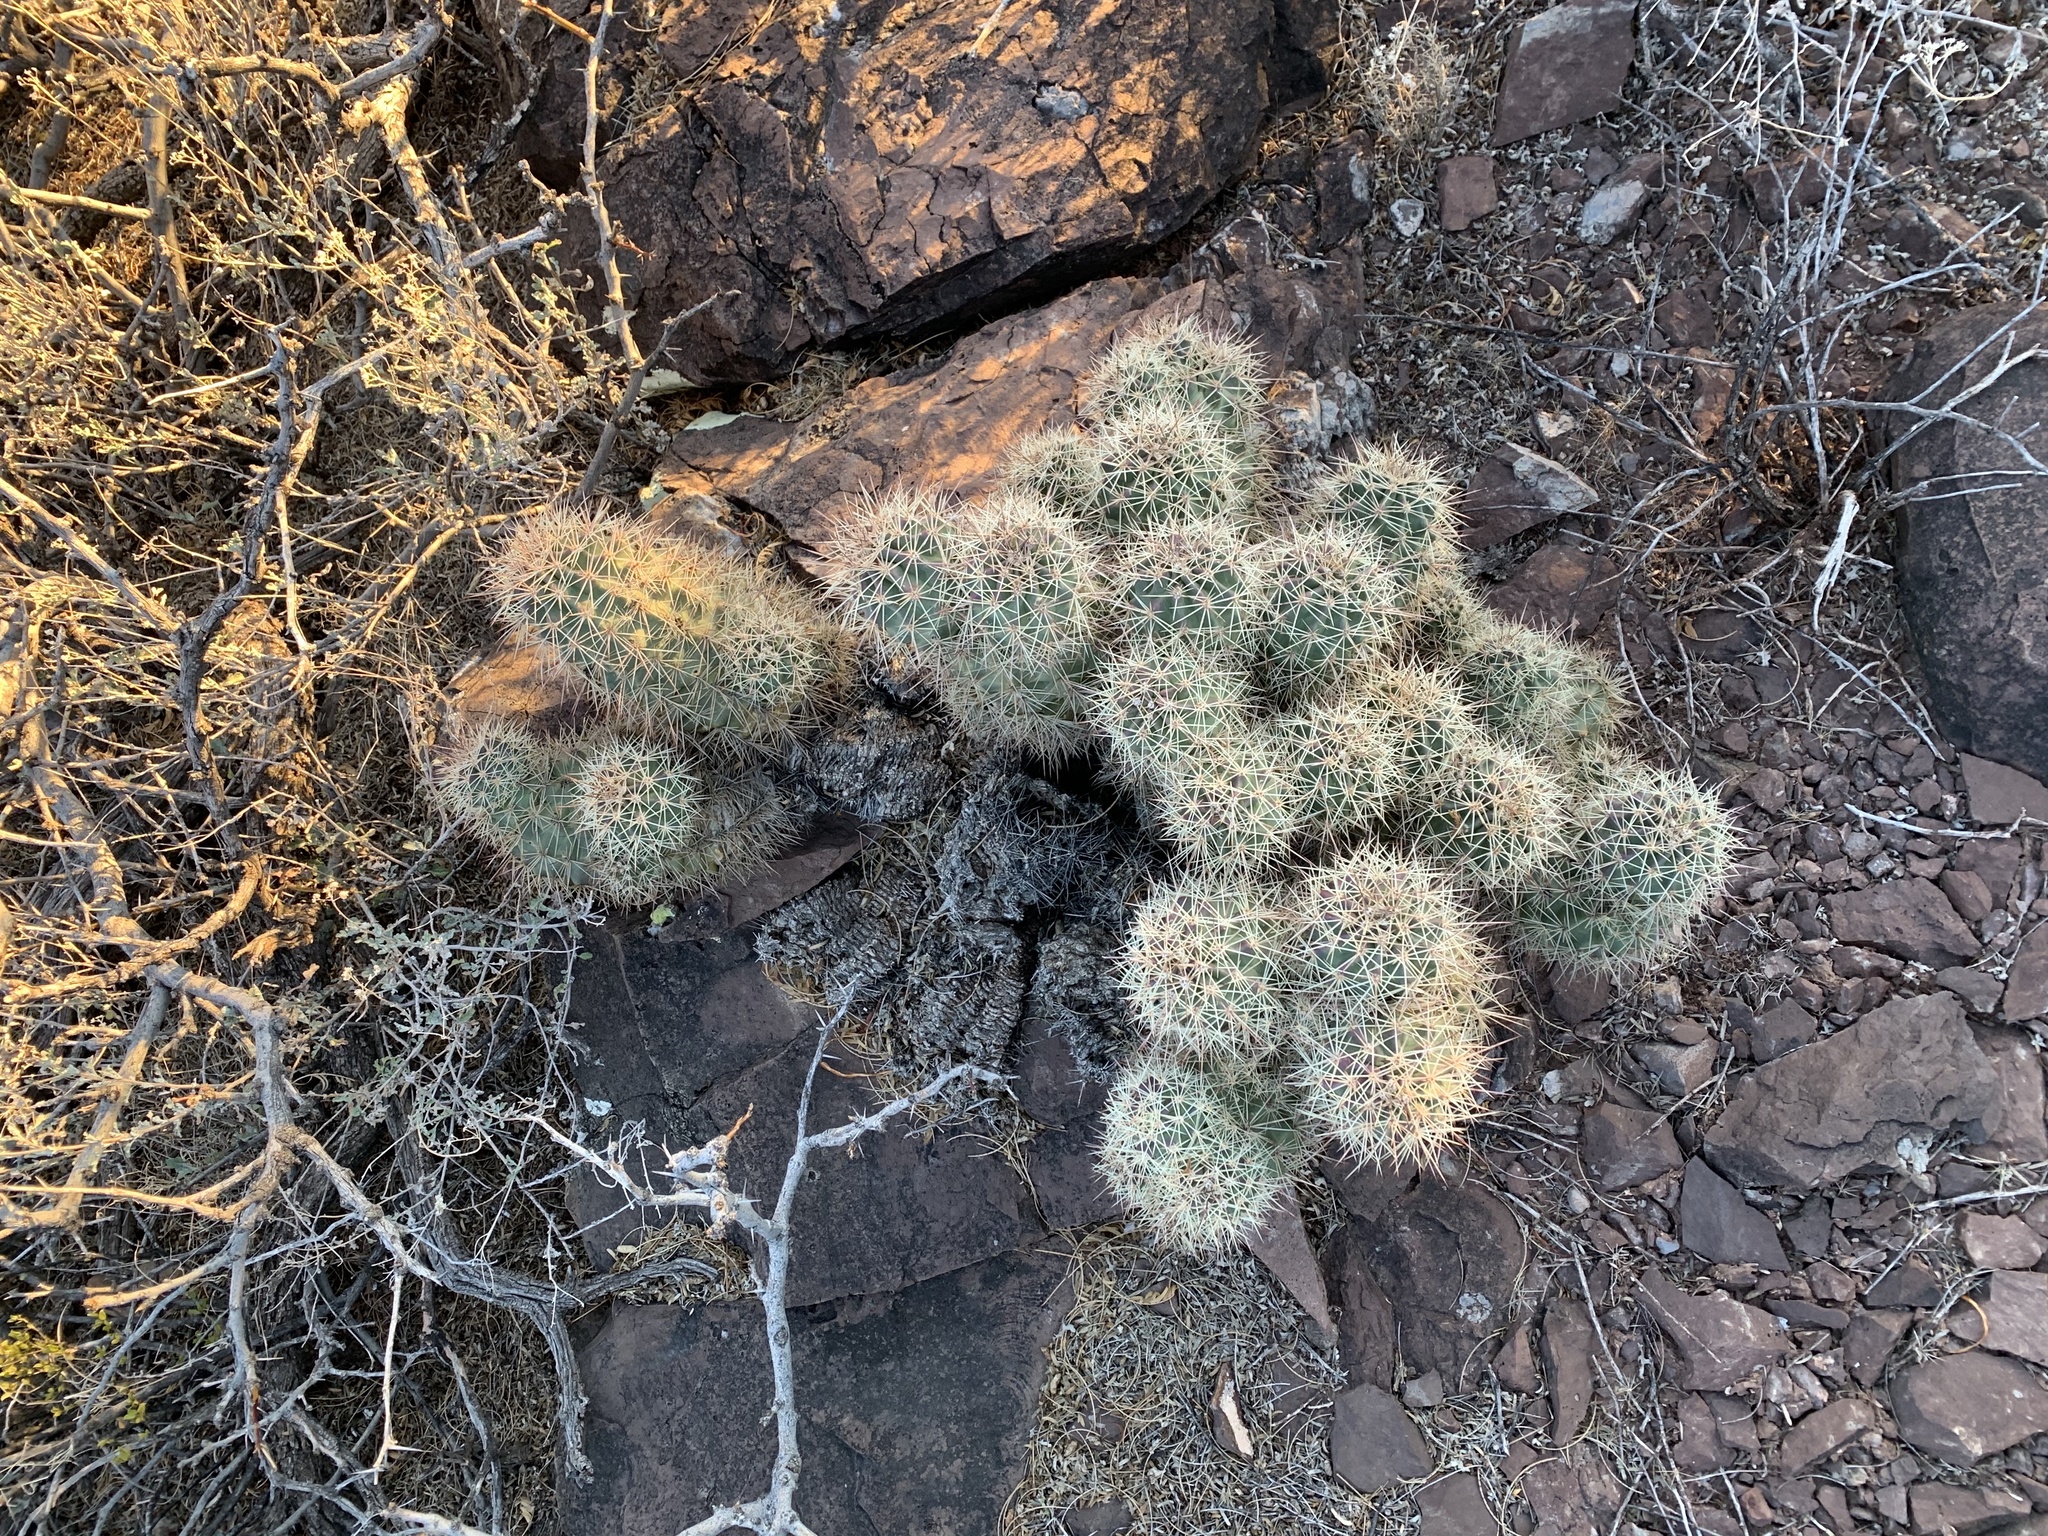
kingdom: Plantae
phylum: Tracheophyta
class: Magnoliopsida
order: Caryophyllales
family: Cactaceae
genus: Echinocereus
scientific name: Echinocereus coccineus
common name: Scarlet hedgehog cactus
